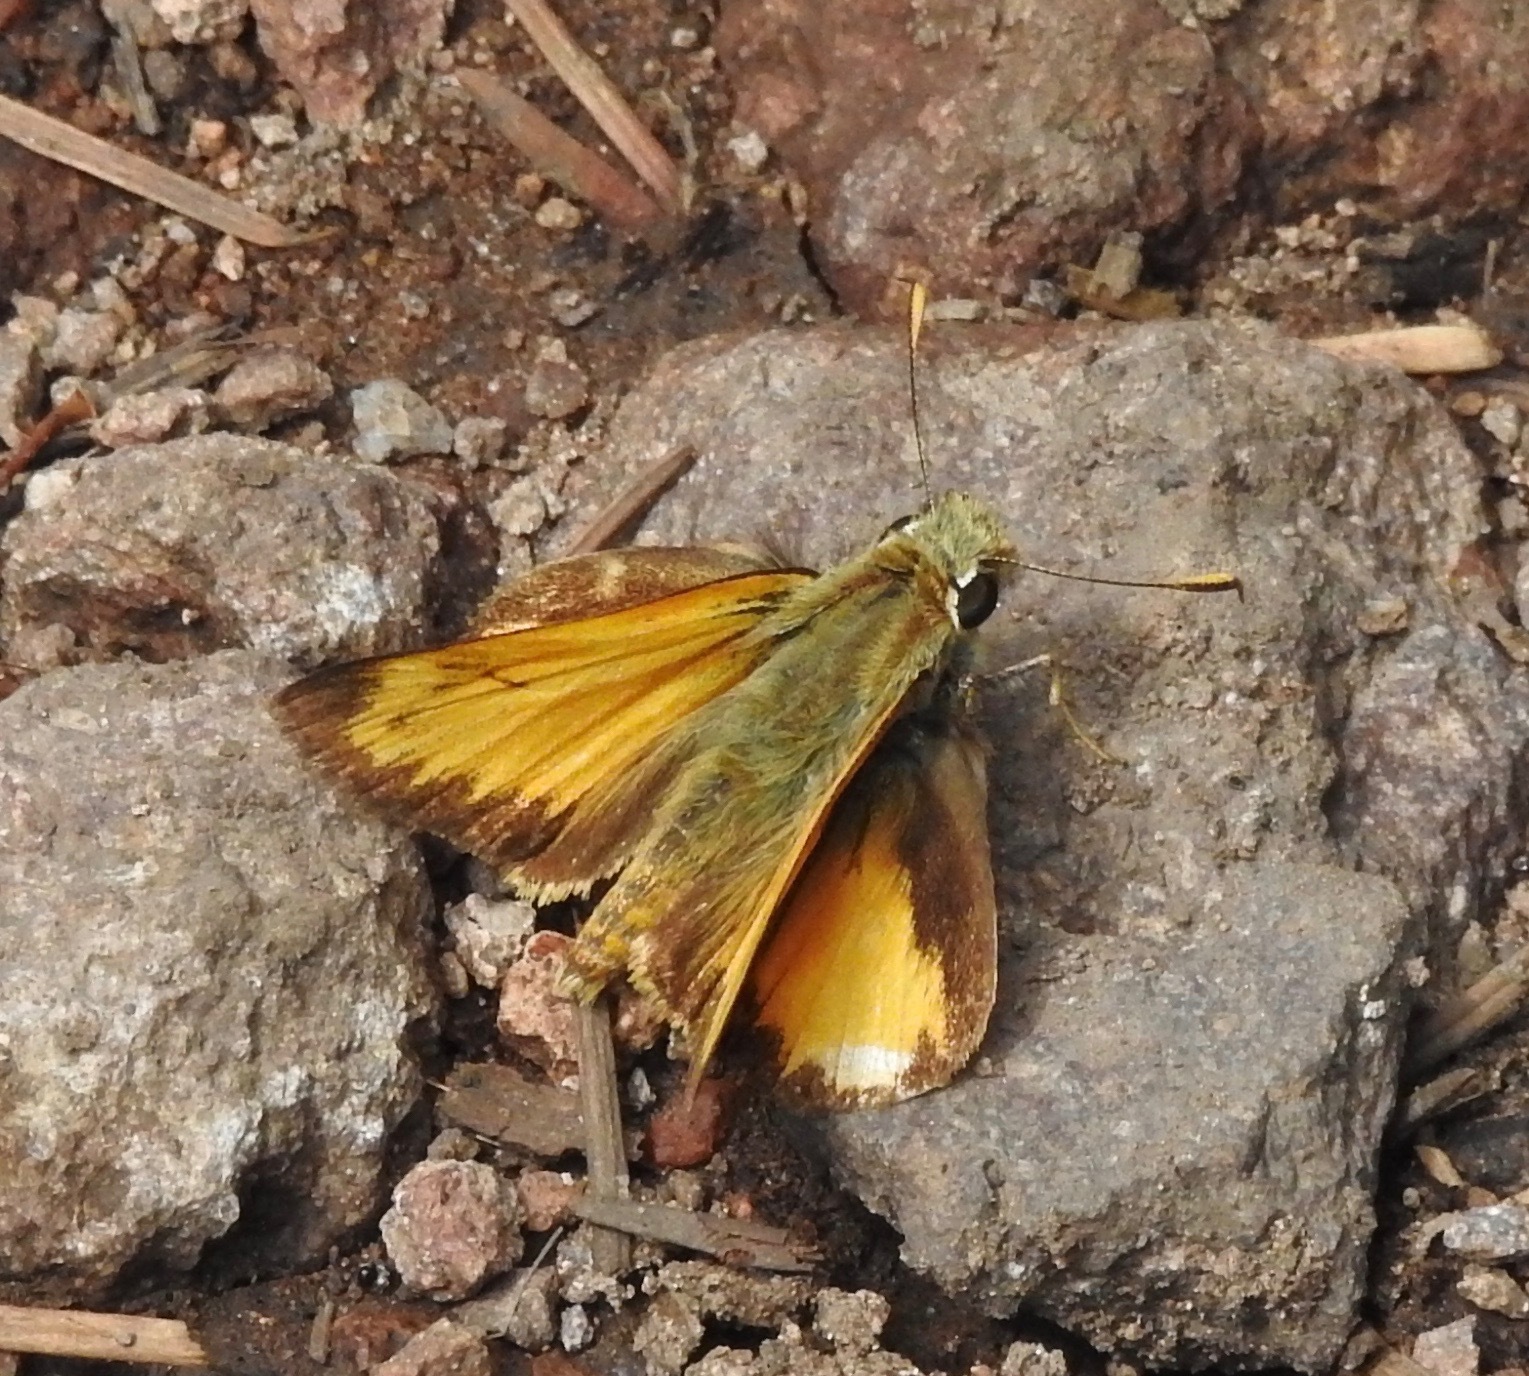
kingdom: Animalia
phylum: Arthropoda
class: Insecta
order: Lepidoptera
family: Hesperiidae
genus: Lon
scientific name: Lon taxiles
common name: Taxiles skipper
